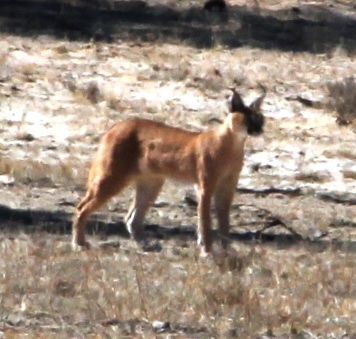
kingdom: Animalia
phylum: Chordata
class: Mammalia
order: Carnivora
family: Felidae
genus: Caracal
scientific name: Caracal caracal
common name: Caracal
